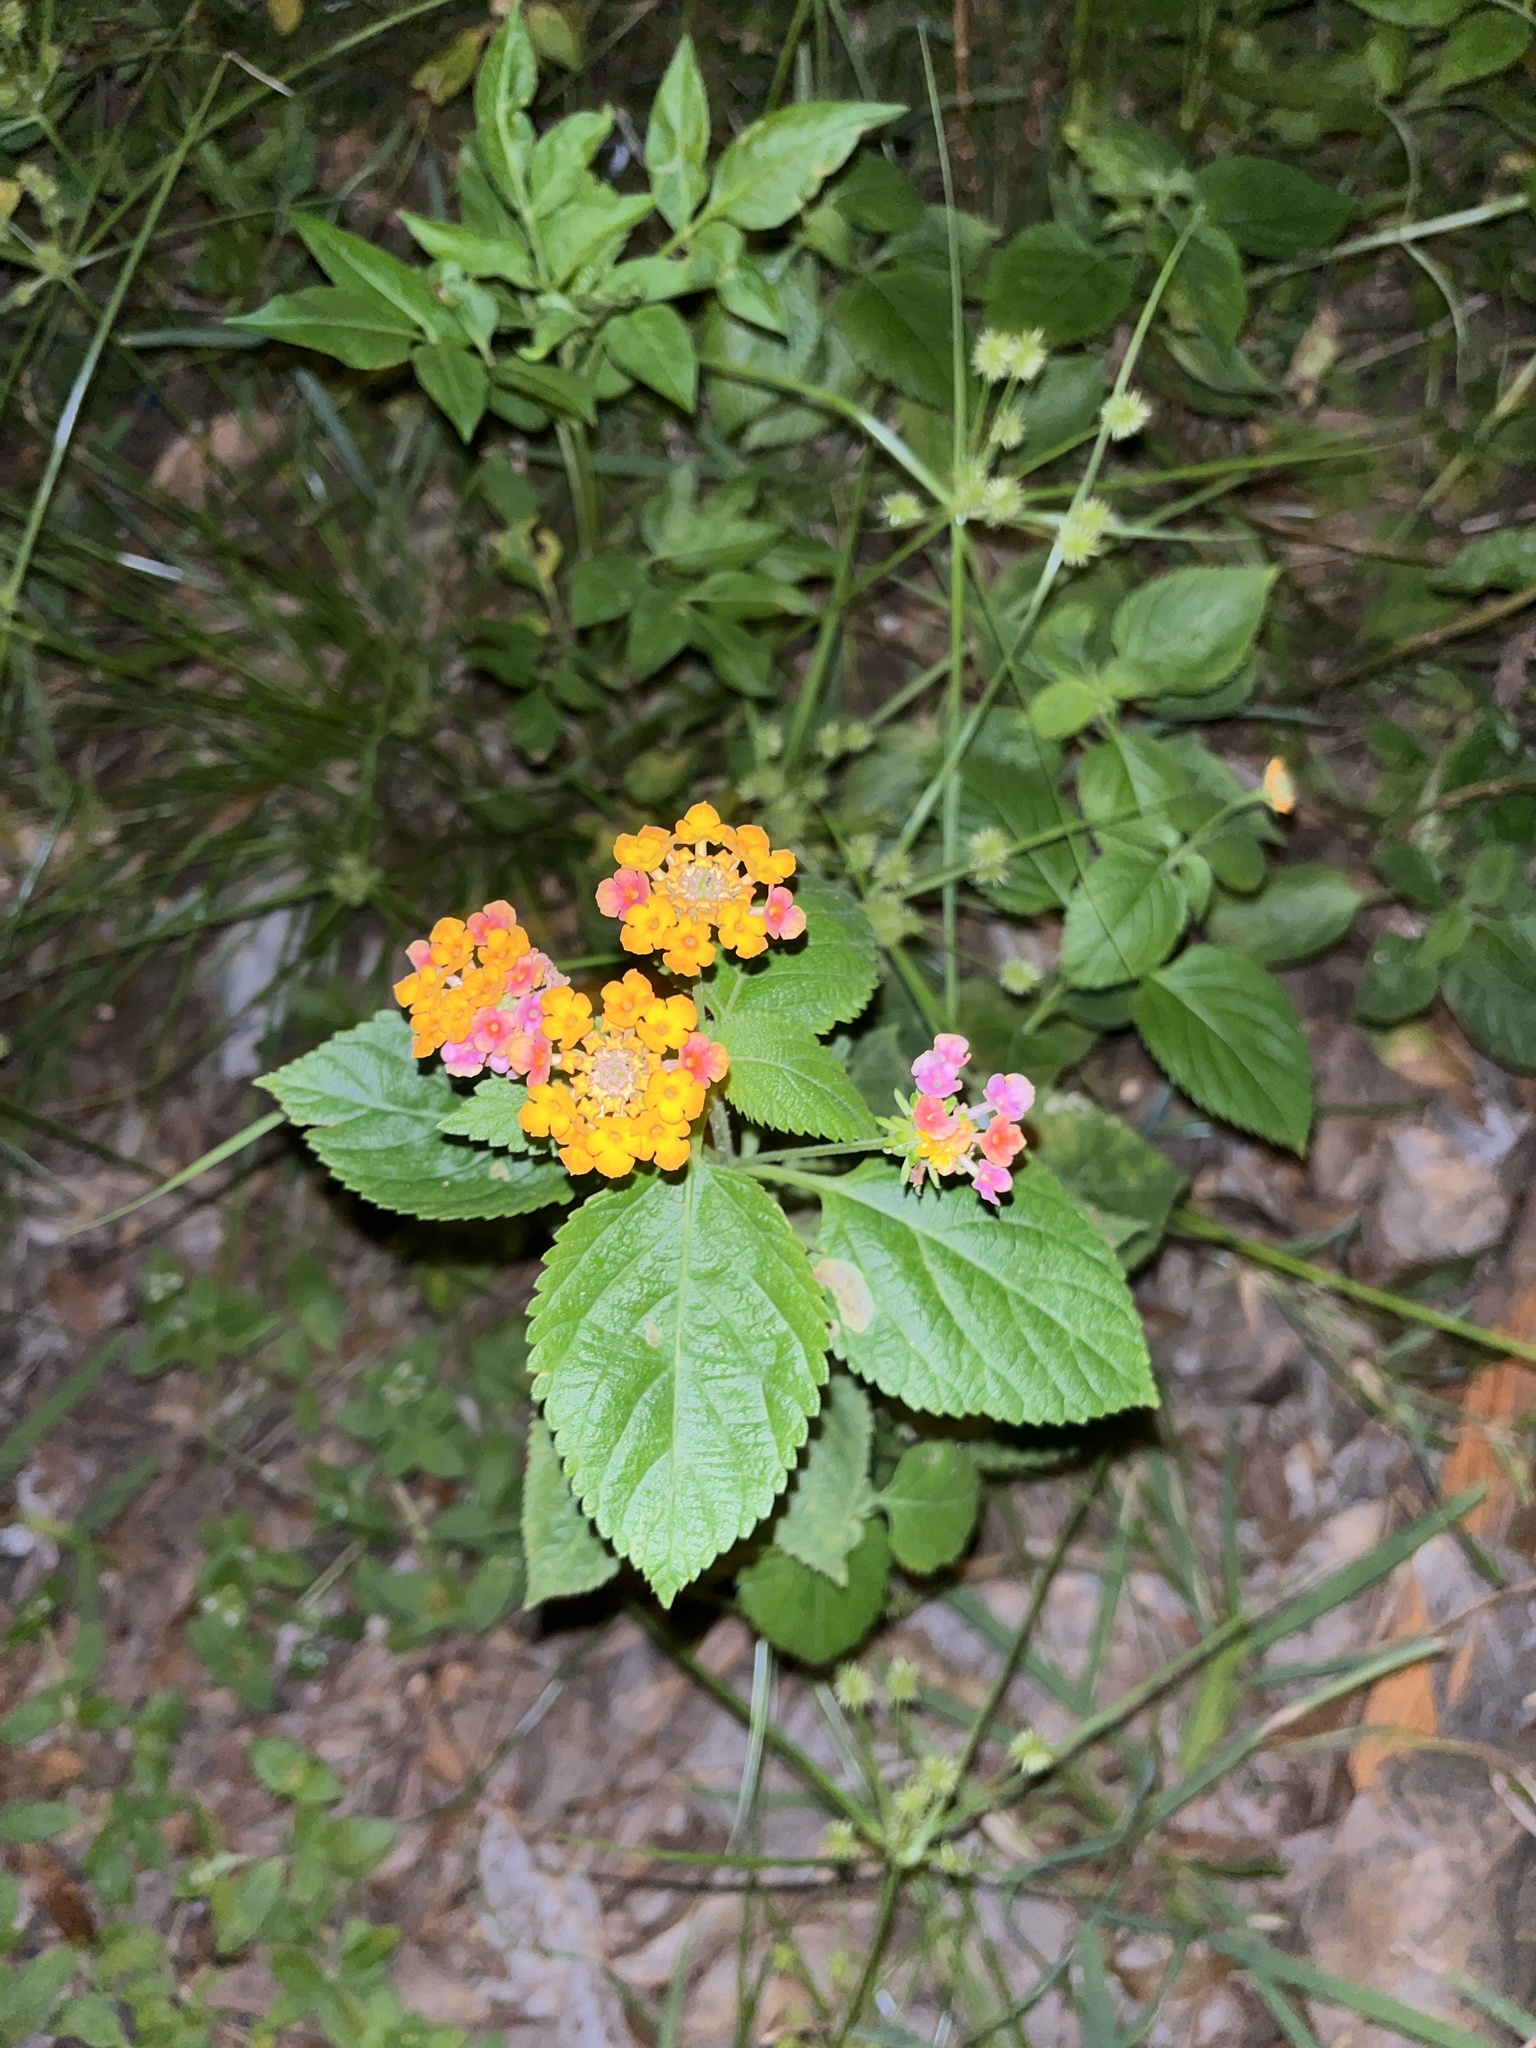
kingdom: Plantae
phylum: Tracheophyta
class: Magnoliopsida
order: Lamiales
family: Verbenaceae
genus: Lantana
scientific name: Lantana strigocamara
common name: Lantana
